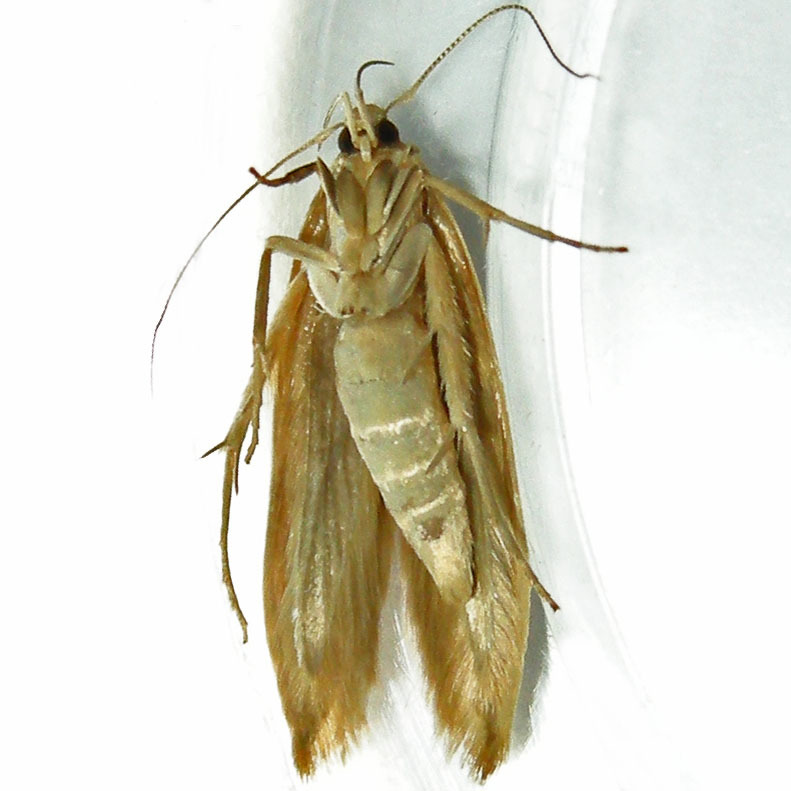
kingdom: Animalia
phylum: Arthropoda
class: Insecta
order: Lepidoptera
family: Cosmopterigidae
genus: Limnaecia
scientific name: Limnaecia phragmitella
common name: Bulrush cosmet
